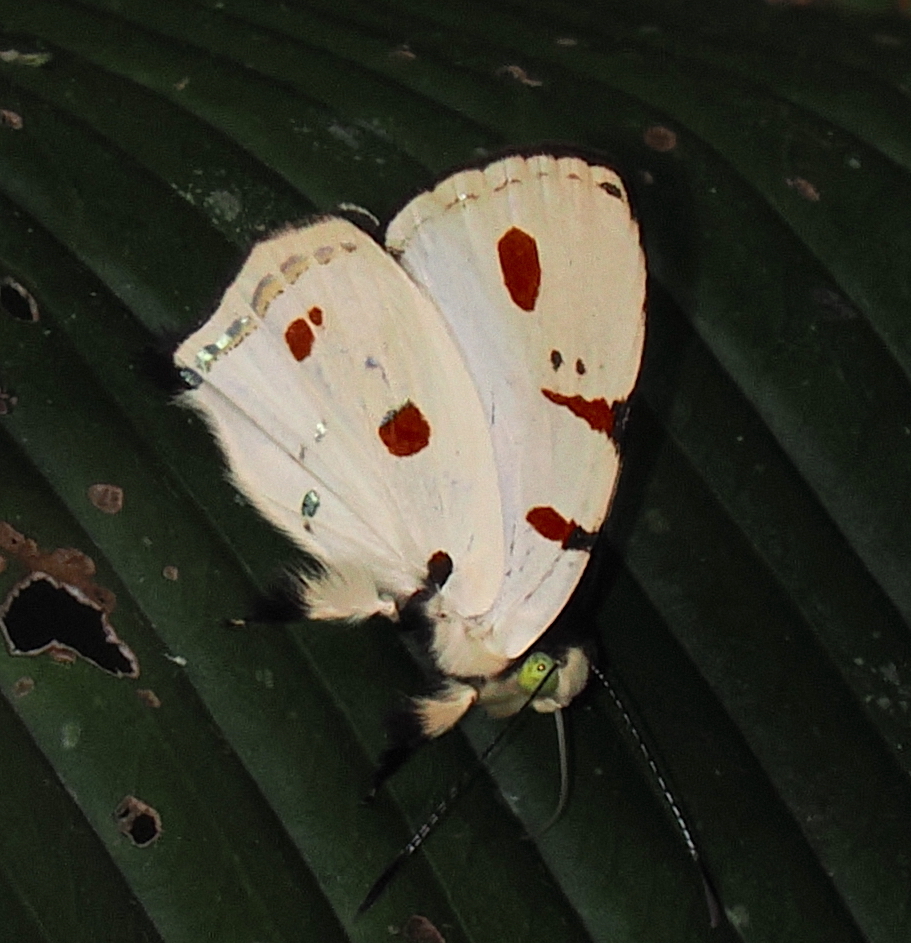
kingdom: Animalia
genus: Anteros
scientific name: Anteros cruentatus
